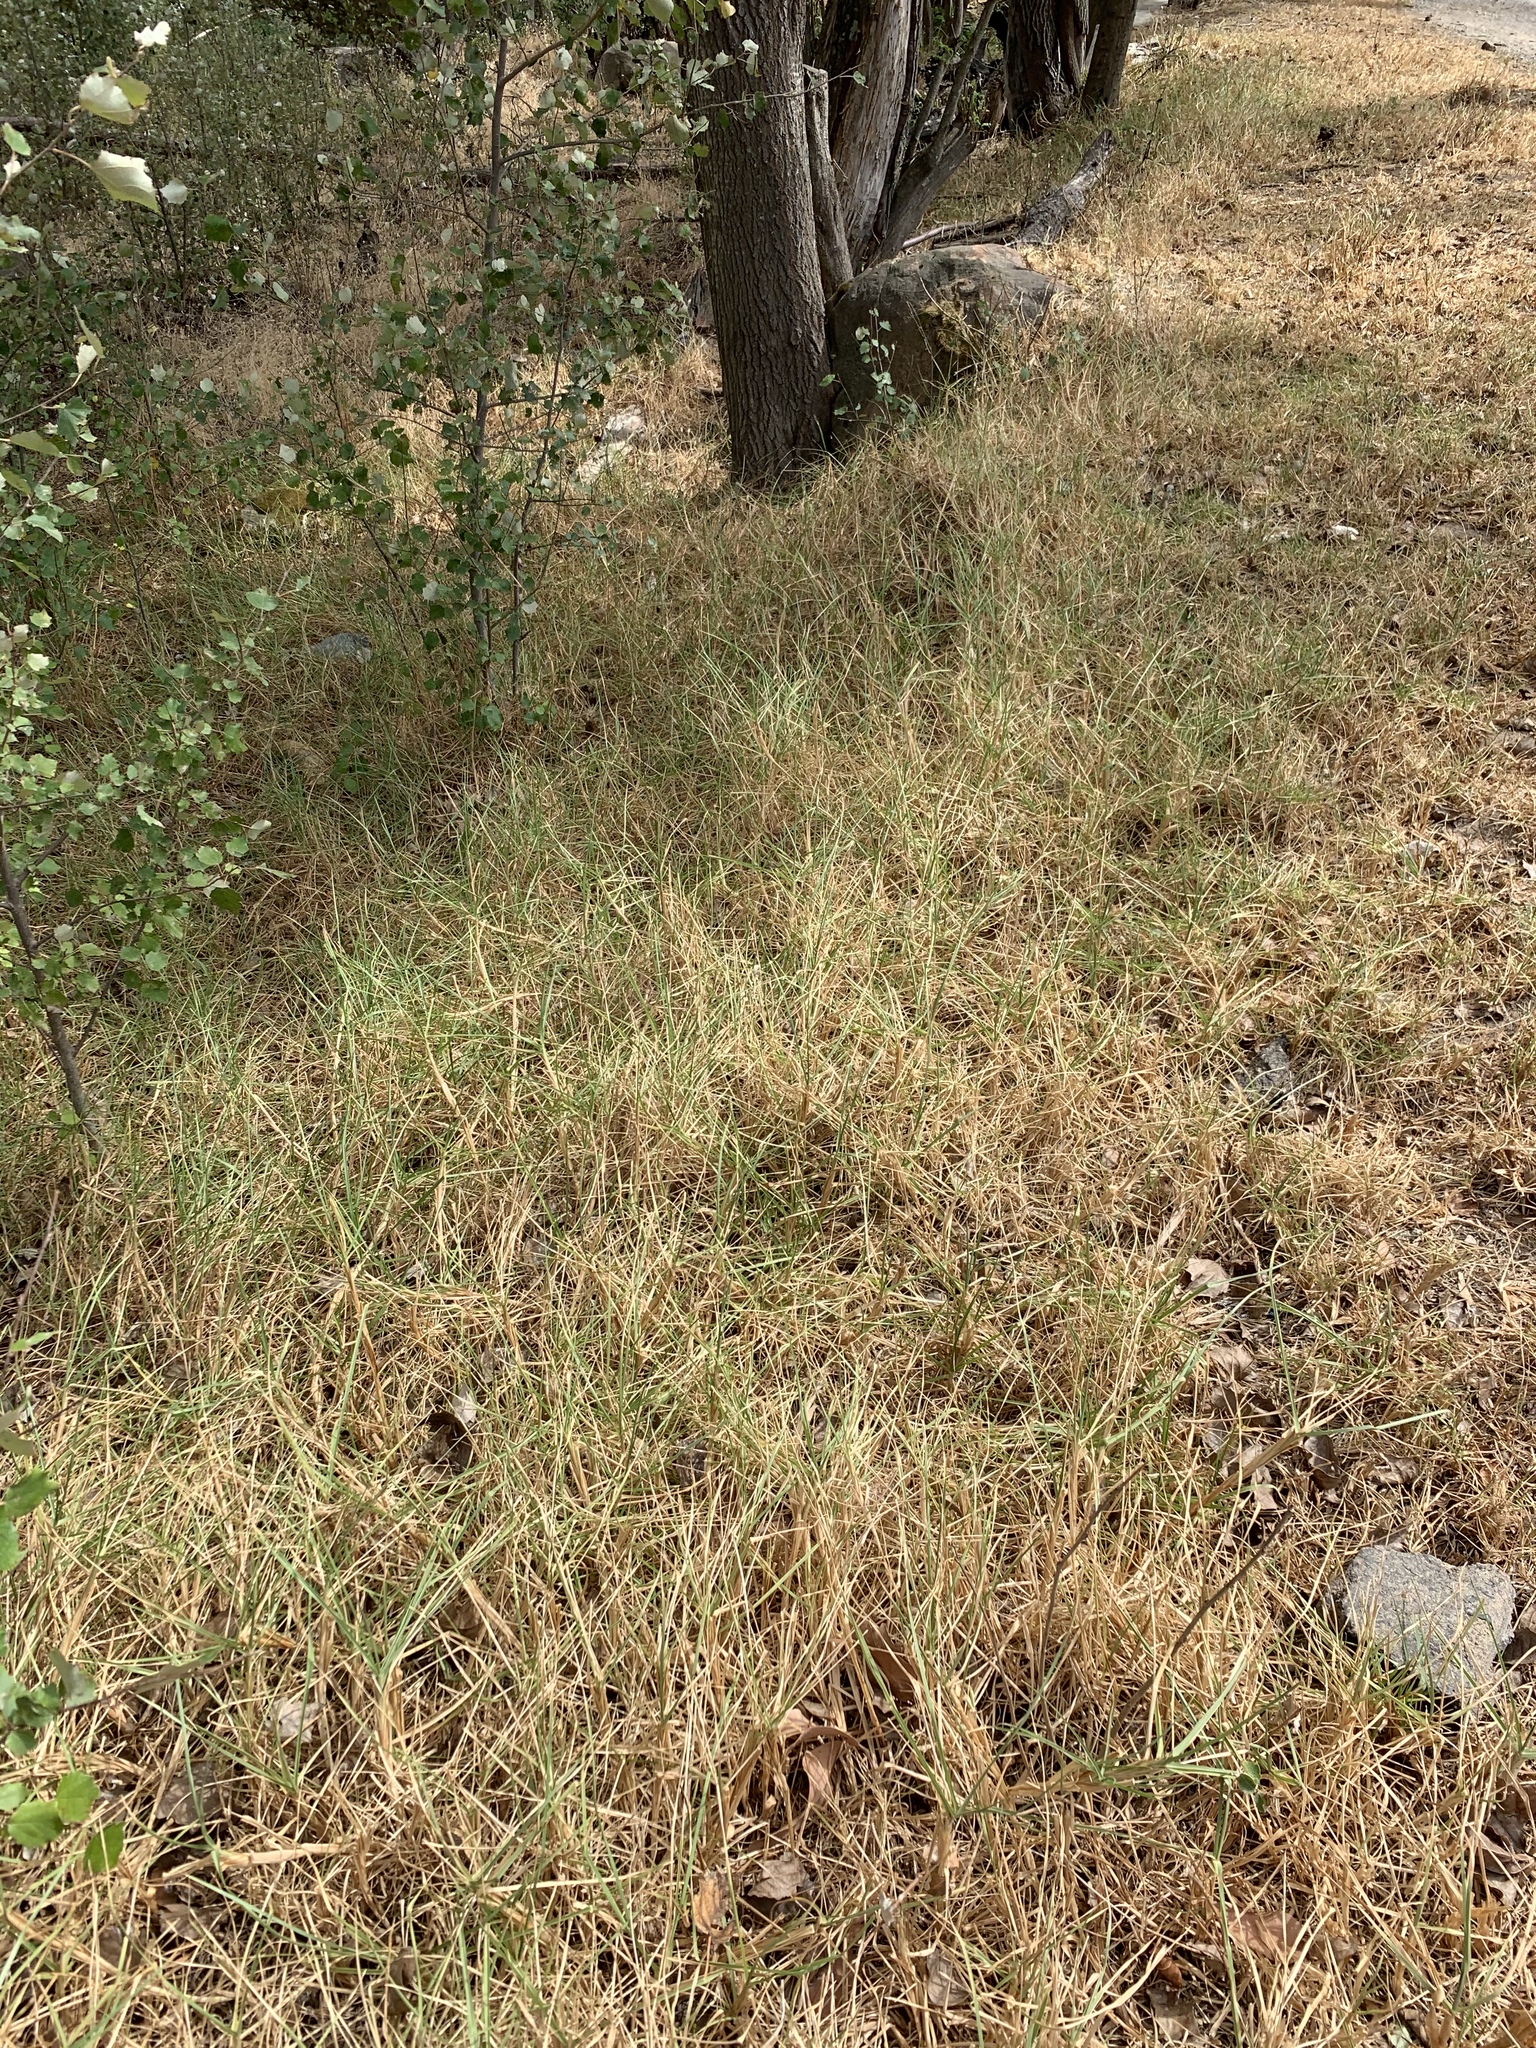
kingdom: Plantae
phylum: Tracheophyta
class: Liliopsida
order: Poales
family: Poaceae
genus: Cenchrus
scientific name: Cenchrus clandestinus
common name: Kikuyugrass
